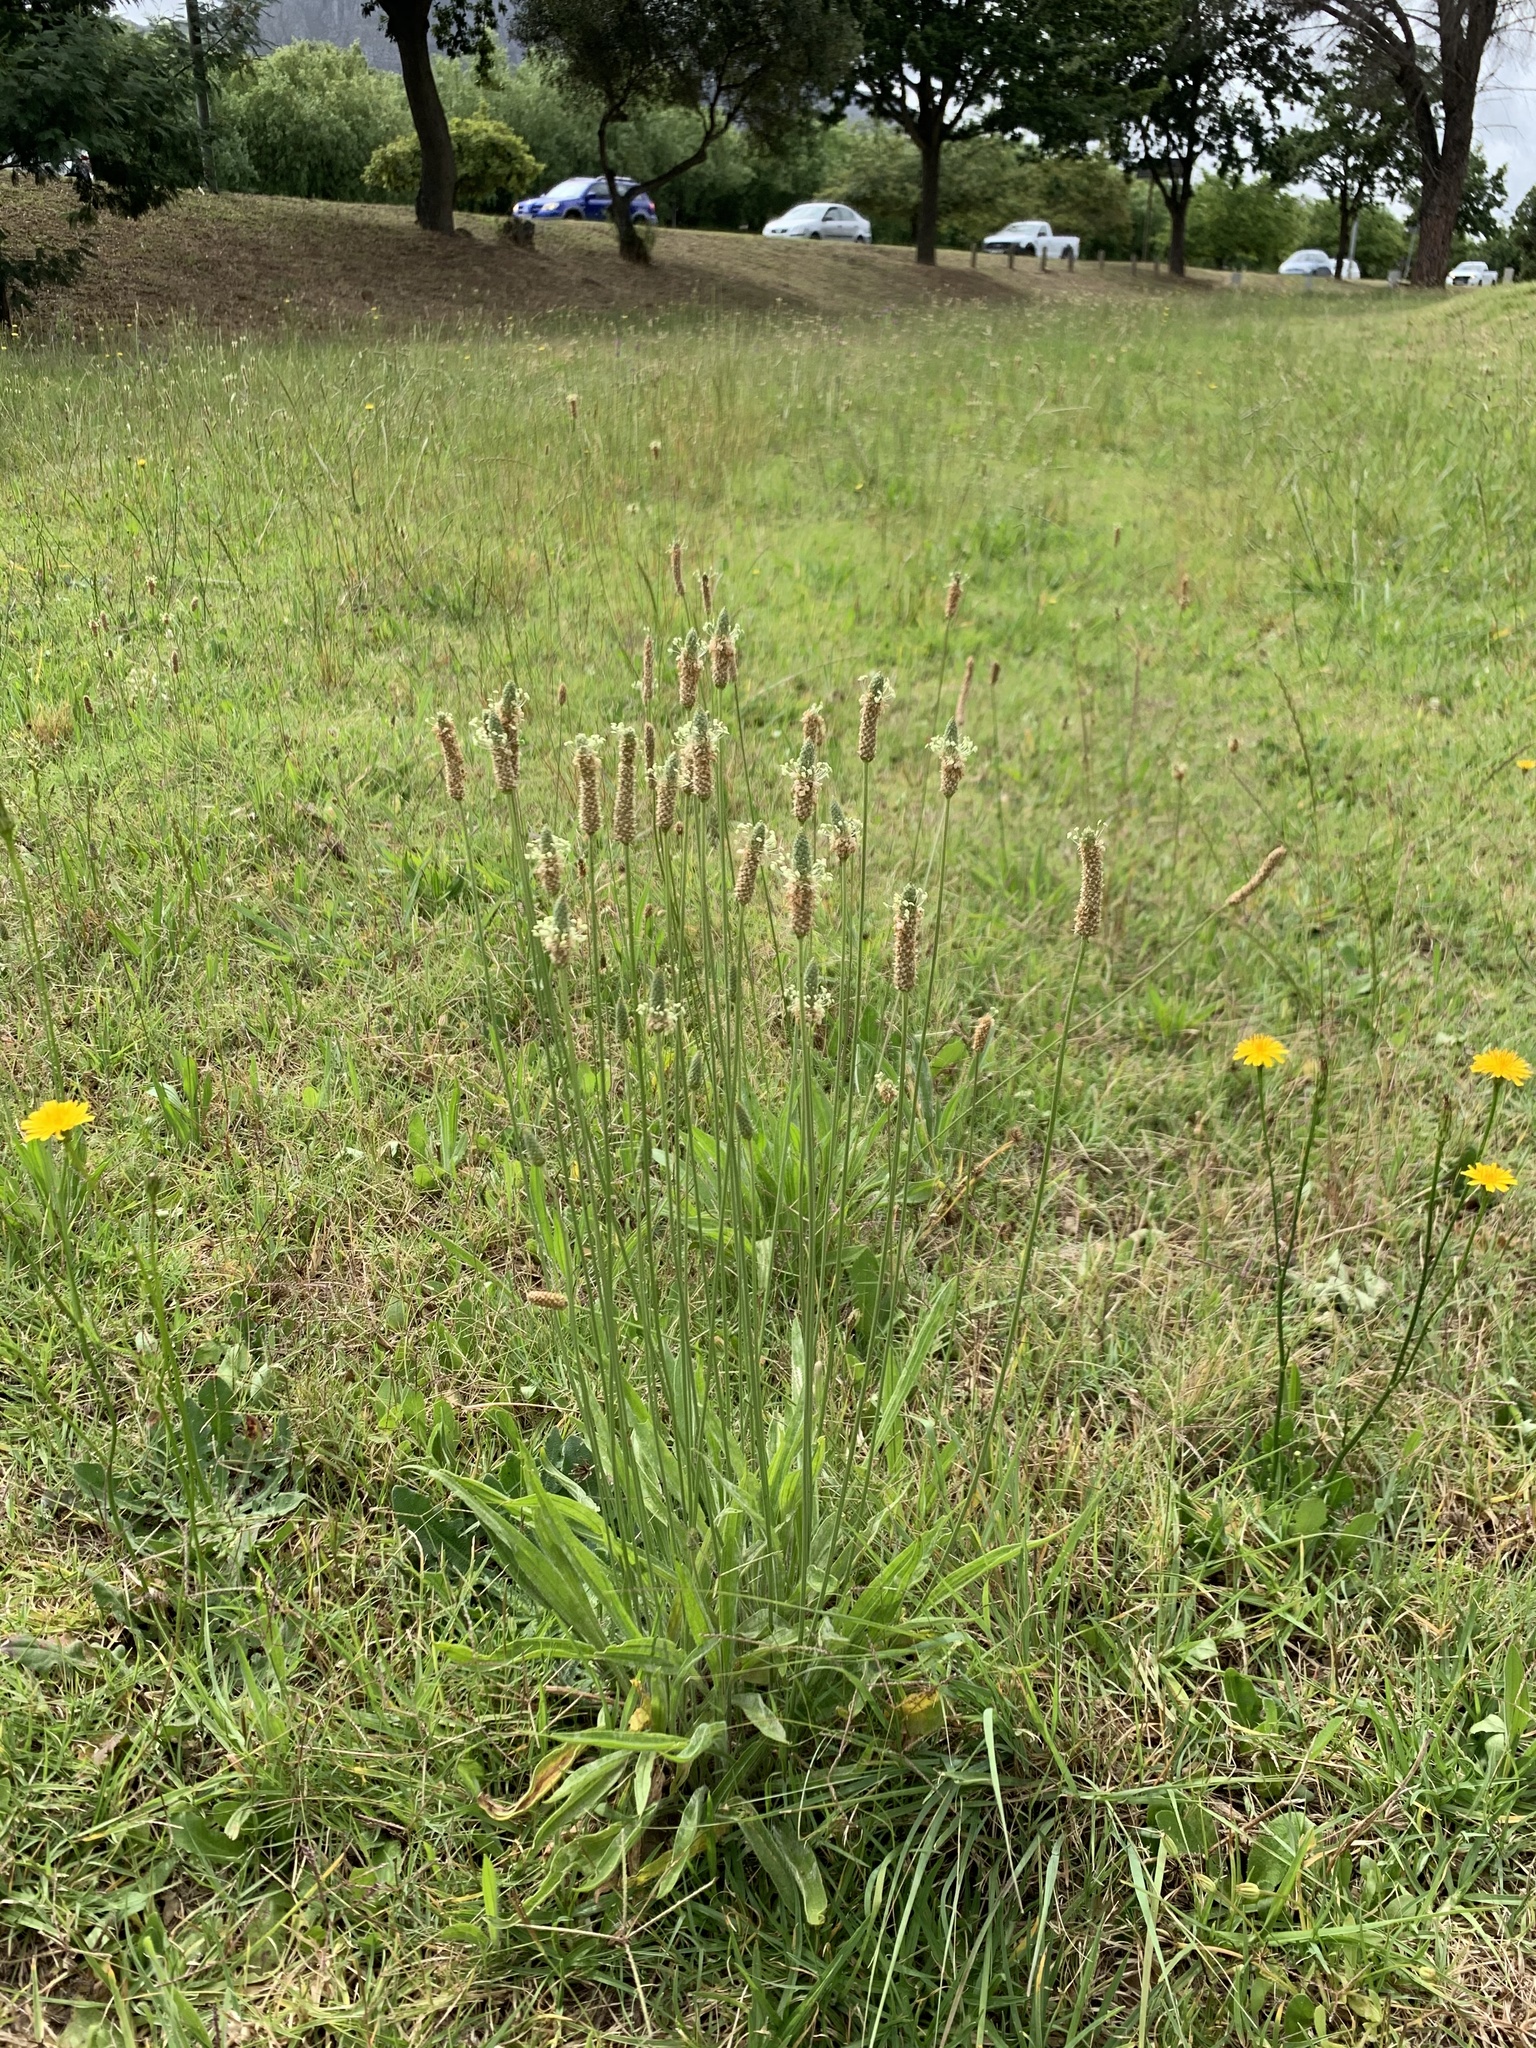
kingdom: Plantae
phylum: Tracheophyta
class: Magnoliopsida
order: Lamiales
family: Plantaginaceae
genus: Plantago
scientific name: Plantago lanceolata
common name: Ribwort plantain
